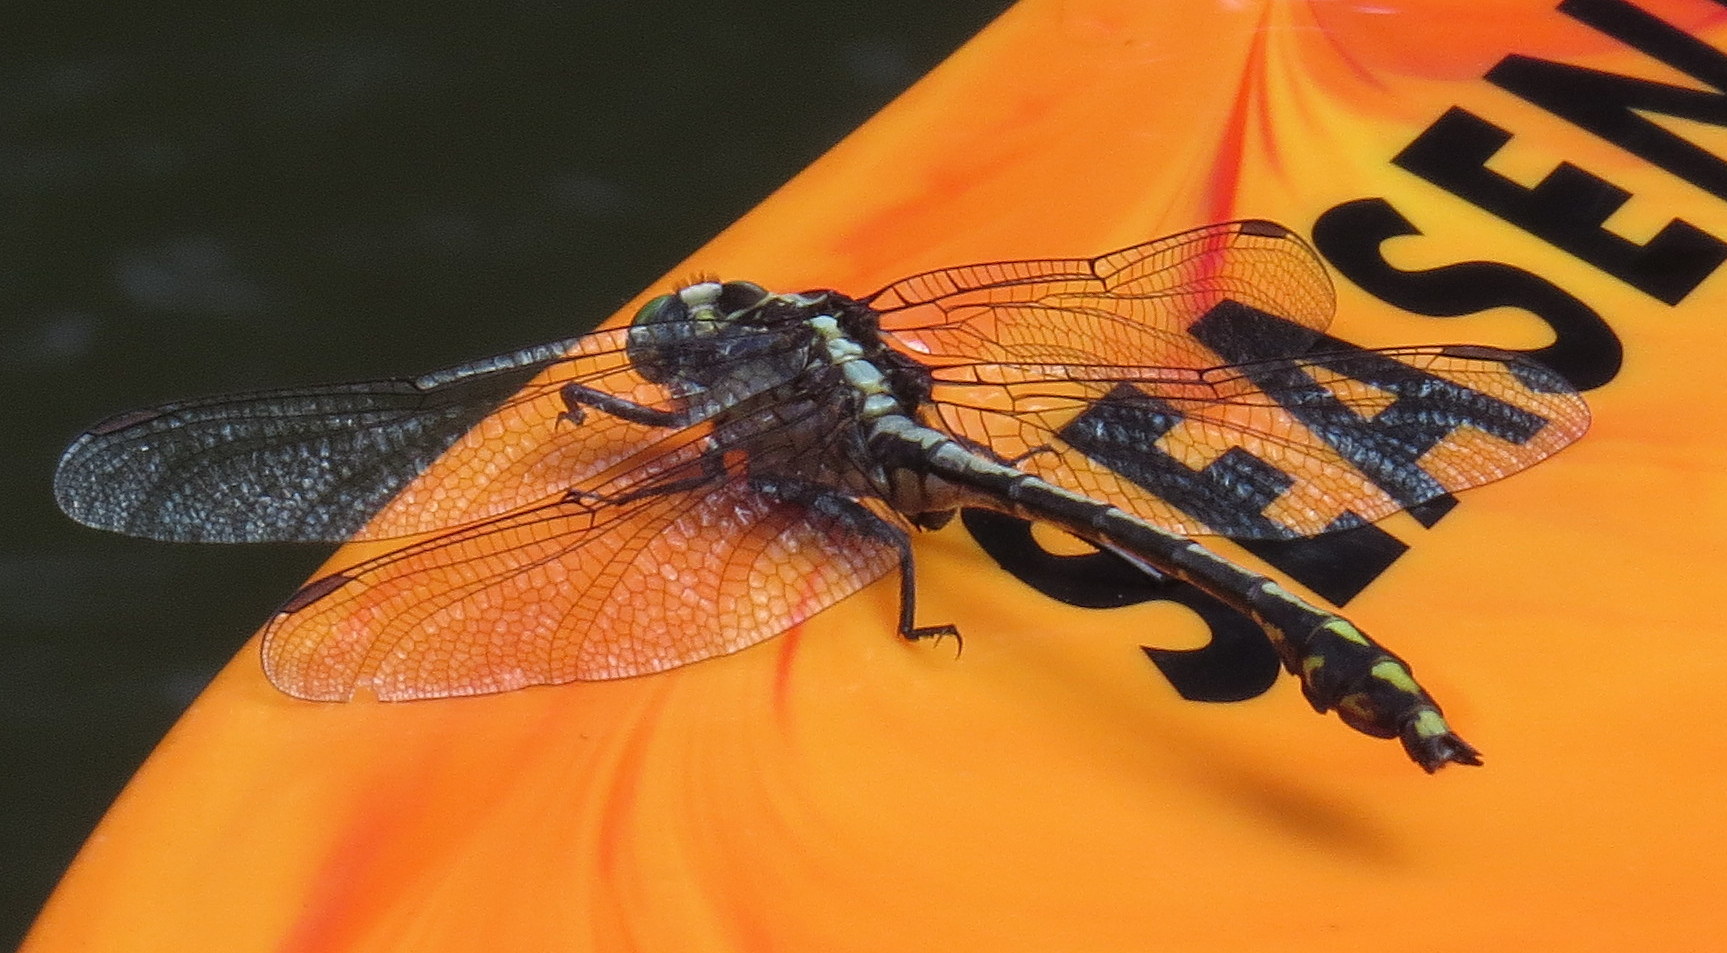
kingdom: Animalia
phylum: Arthropoda
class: Insecta
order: Odonata
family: Gomphidae
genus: Dromogomphus
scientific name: Dromogomphus spinosus
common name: Black-shouldered spinyleg
